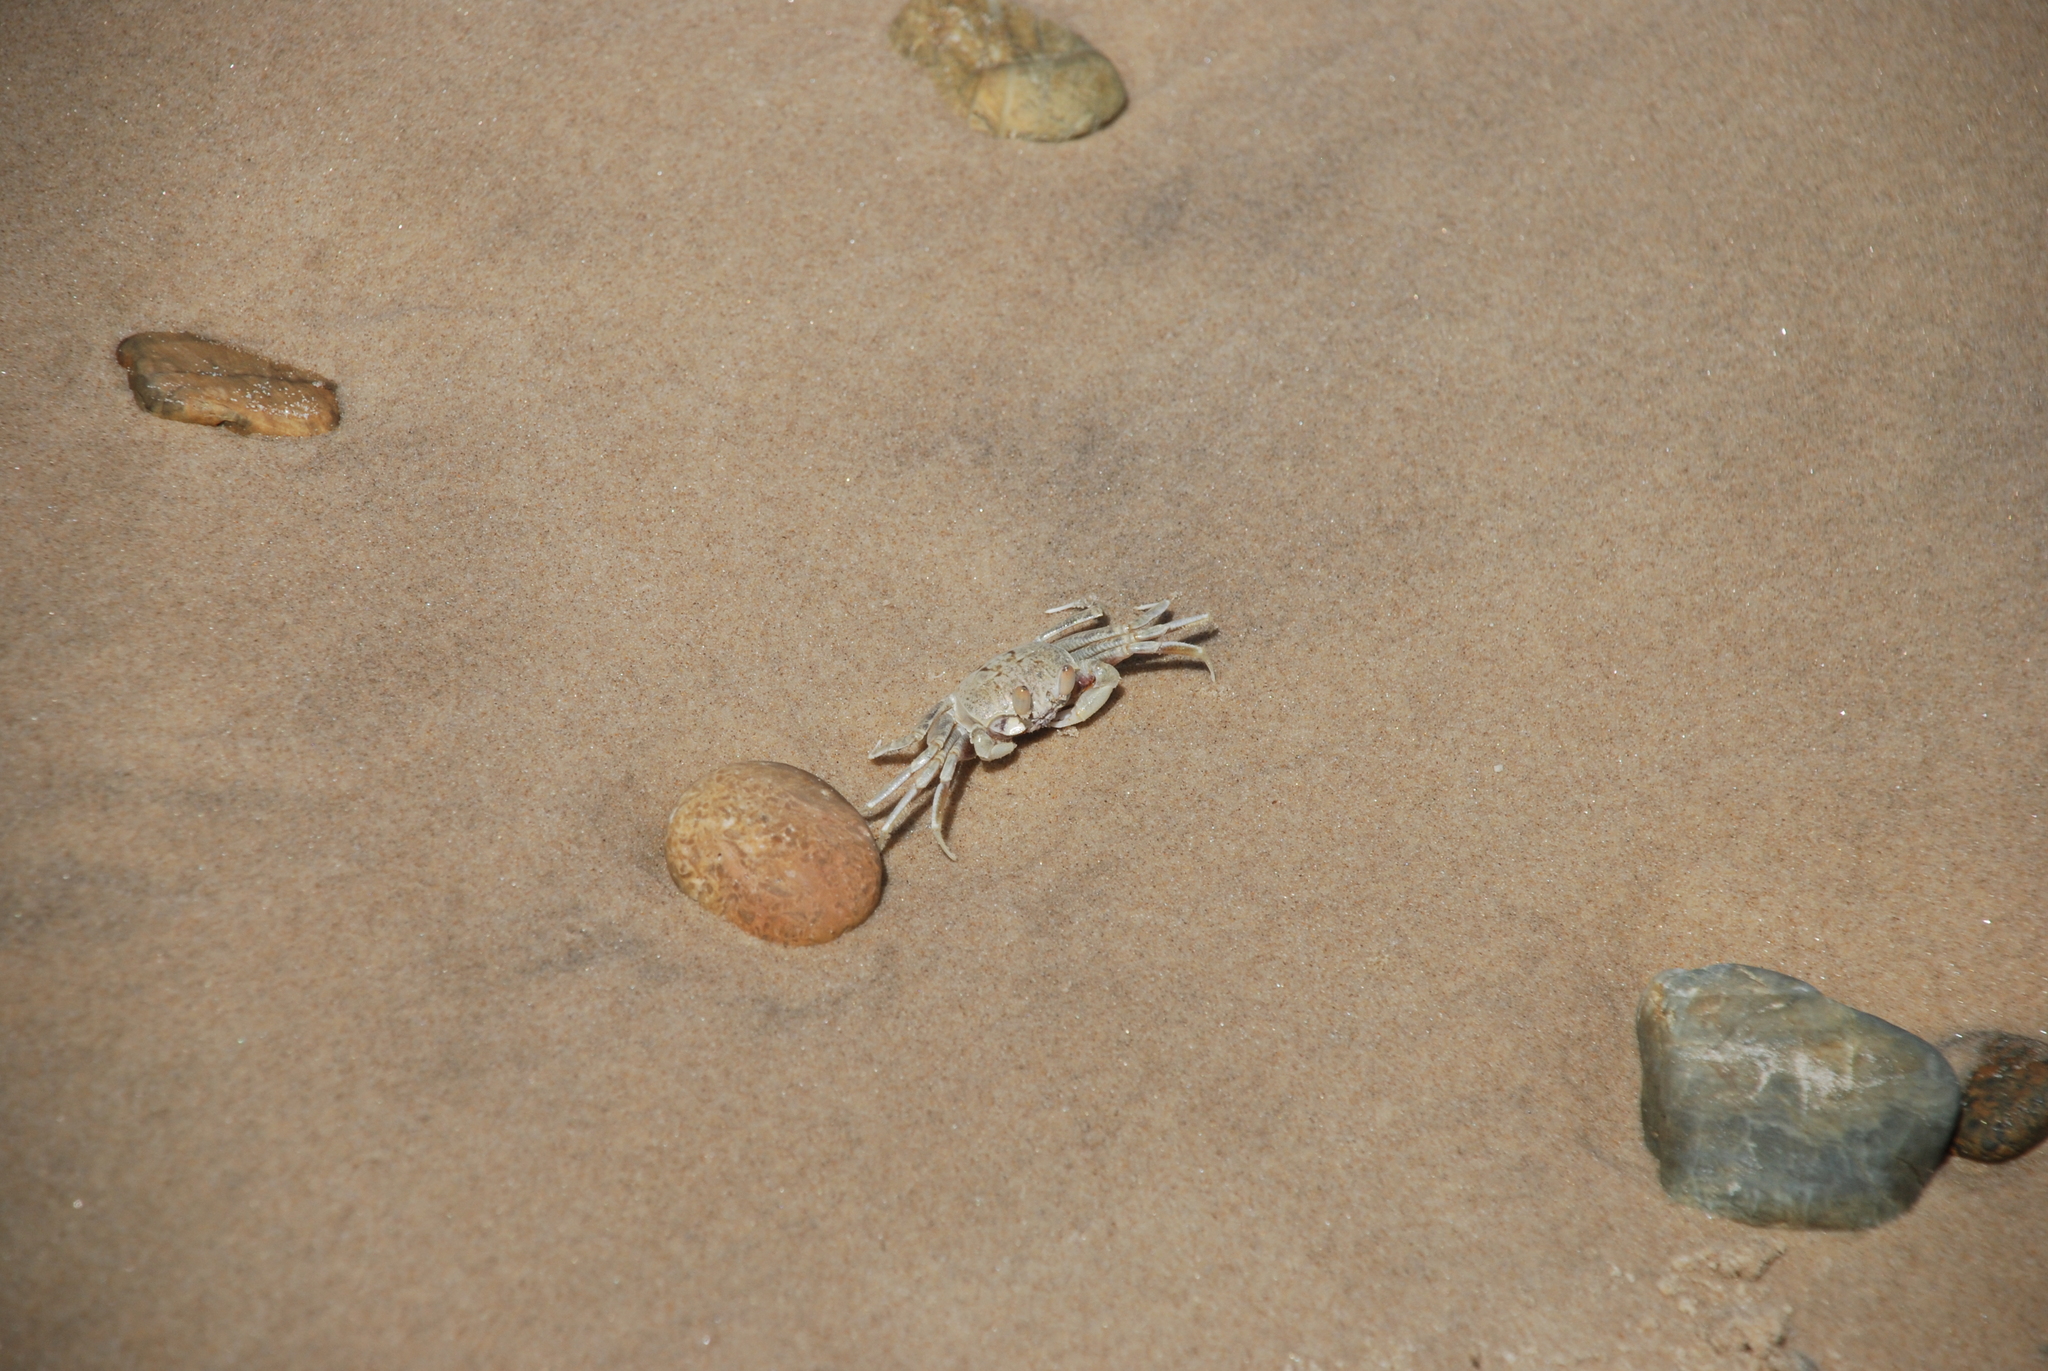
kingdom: Animalia
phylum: Arthropoda
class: Malacostraca
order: Decapoda
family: Ocypodidae
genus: Ocypode
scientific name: Ocypode ceratophthalmus
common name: Indo-pacific ghost crab
